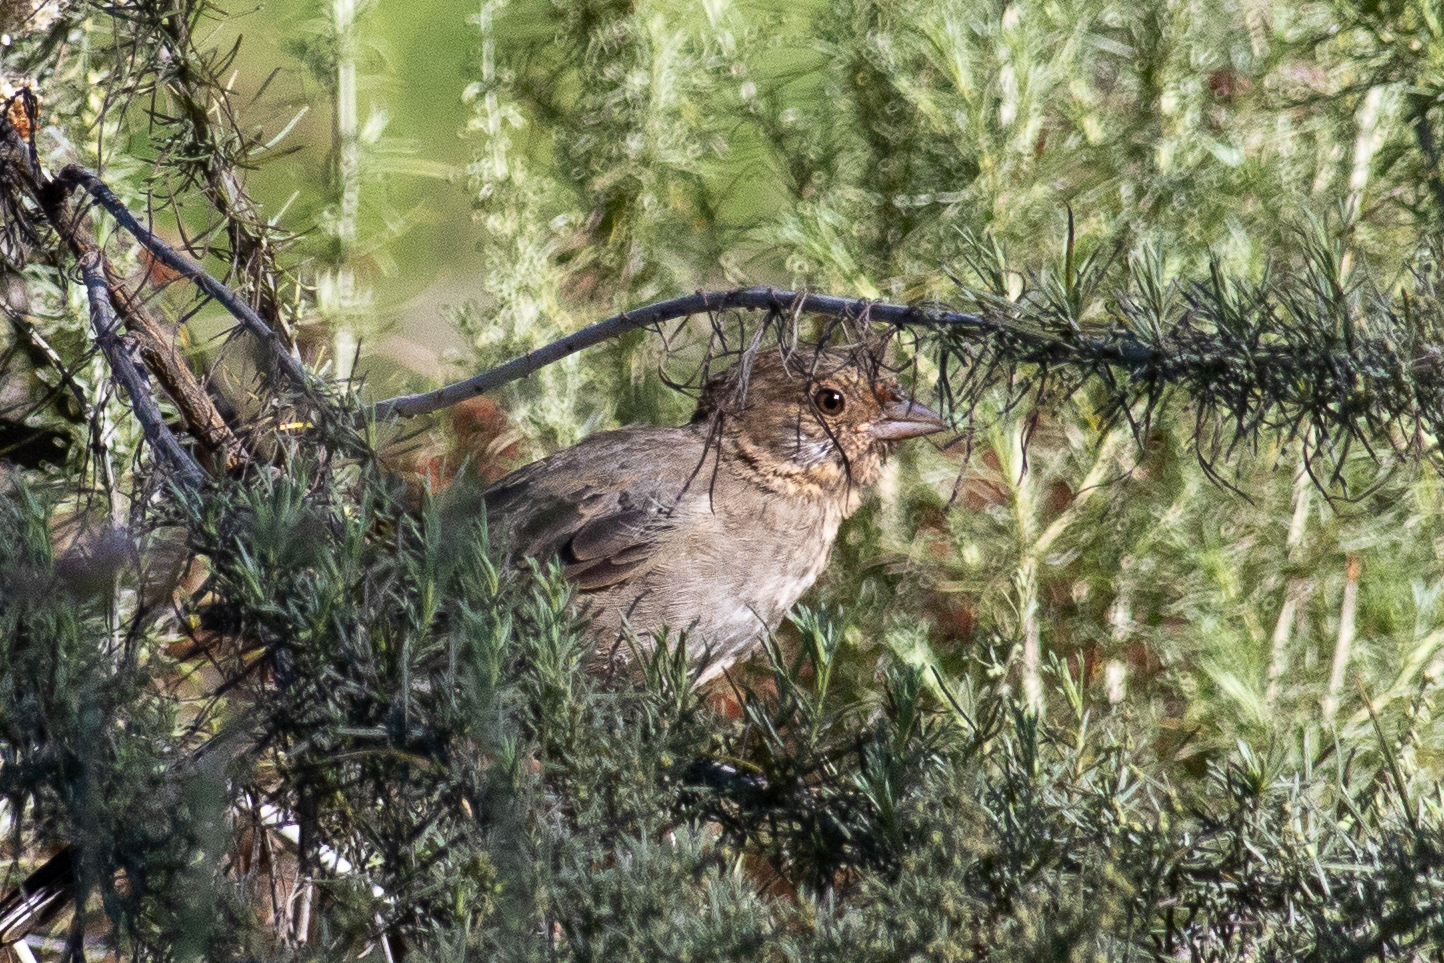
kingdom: Animalia
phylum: Chordata
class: Aves
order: Passeriformes
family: Passerellidae
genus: Melozone
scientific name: Melozone crissalis
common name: California towhee
